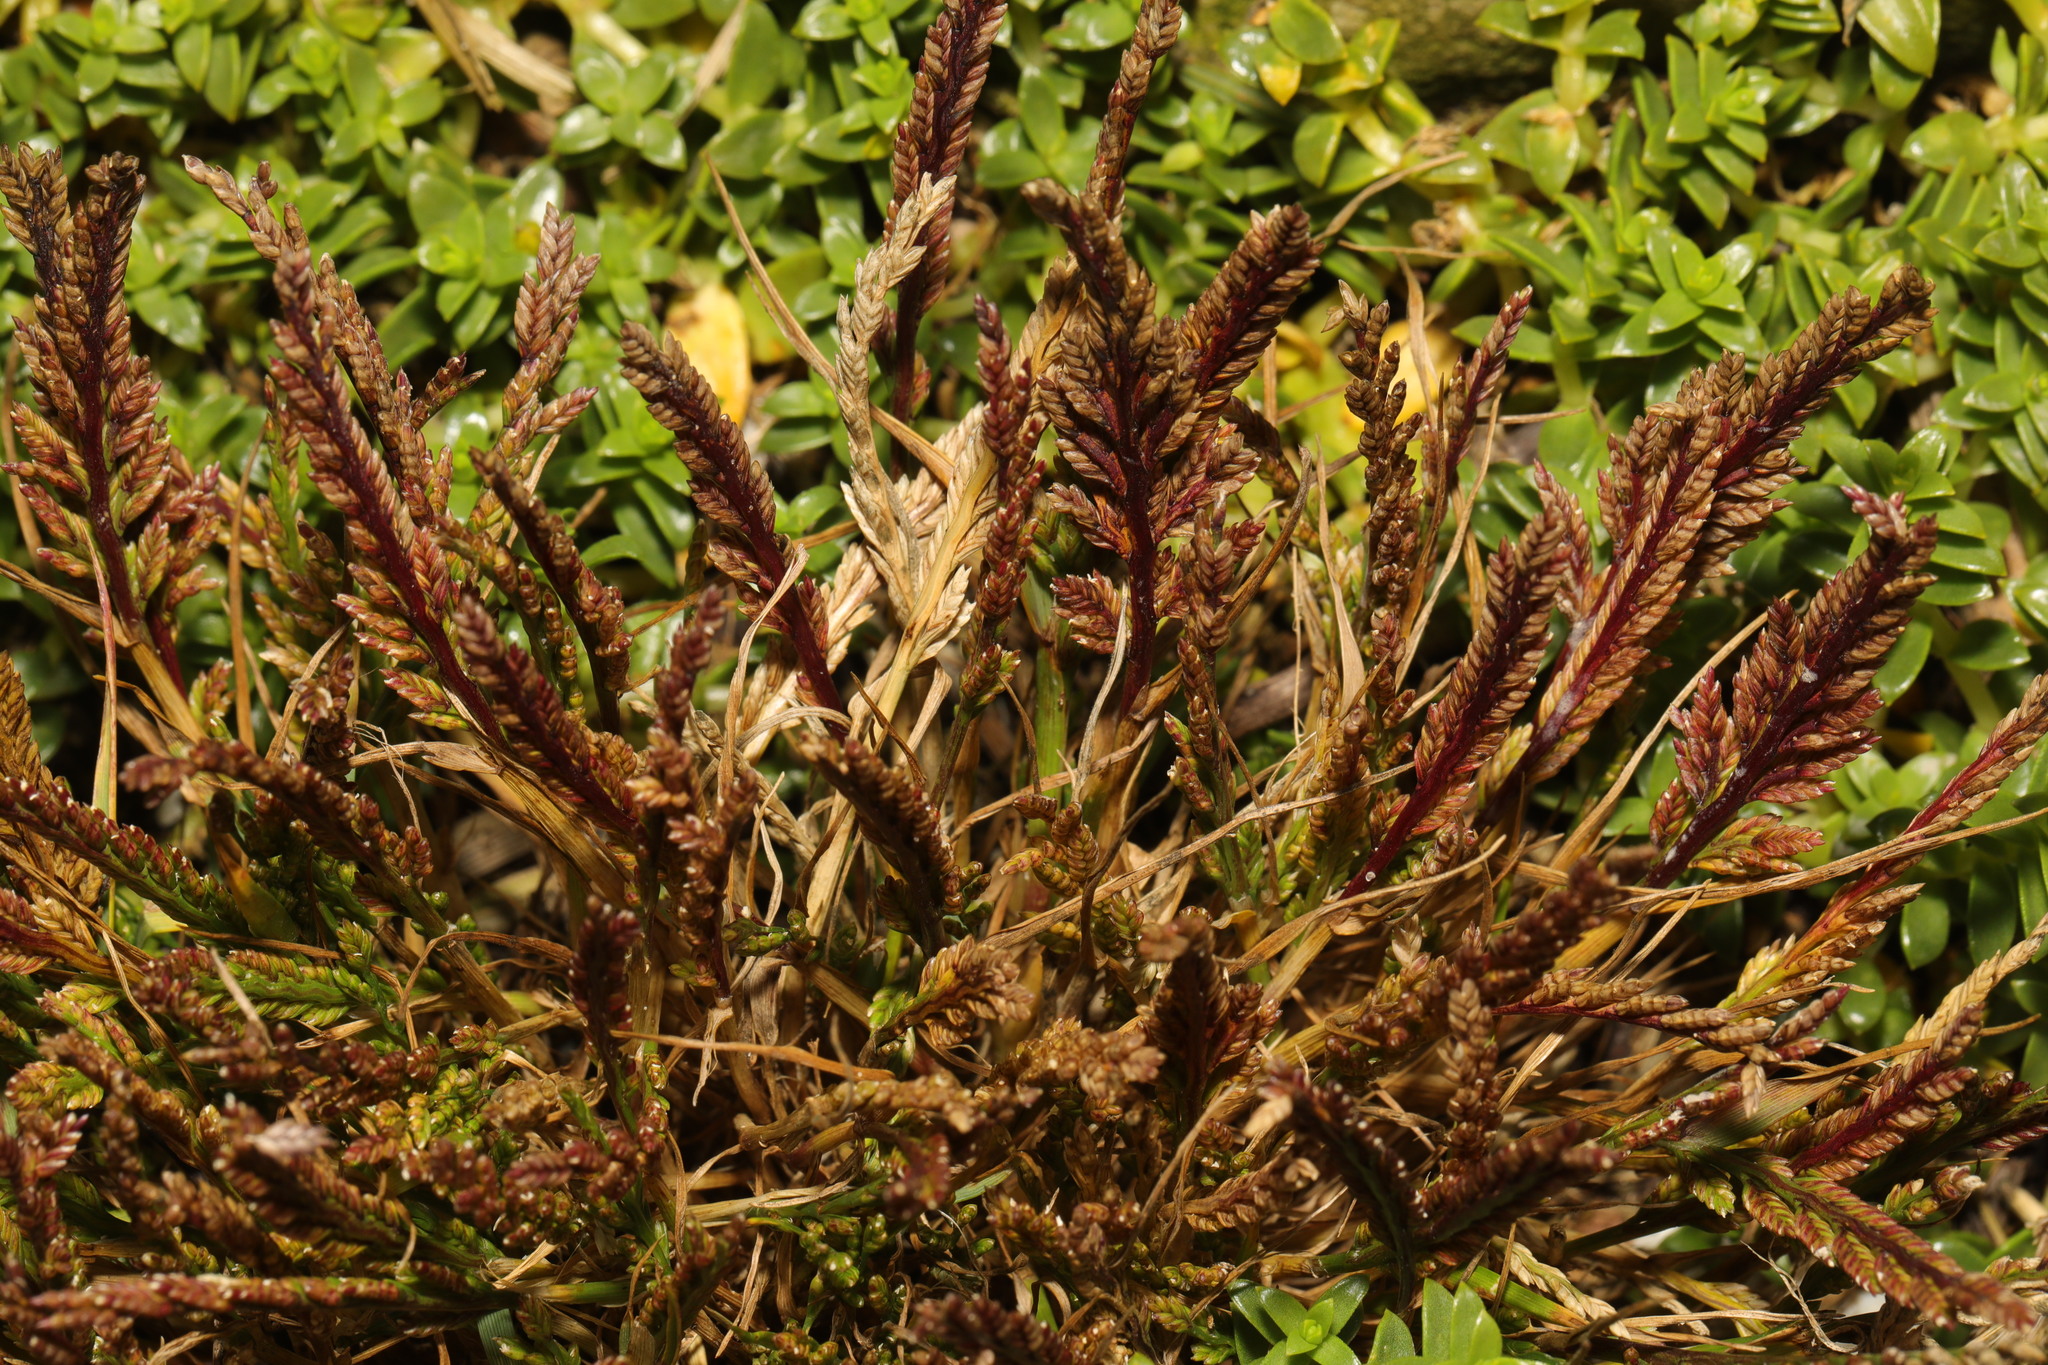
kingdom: Plantae
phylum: Tracheophyta
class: Liliopsida
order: Poales
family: Poaceae
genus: Catapodium
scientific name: Catapodium marinum
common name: Sea fern-grass
